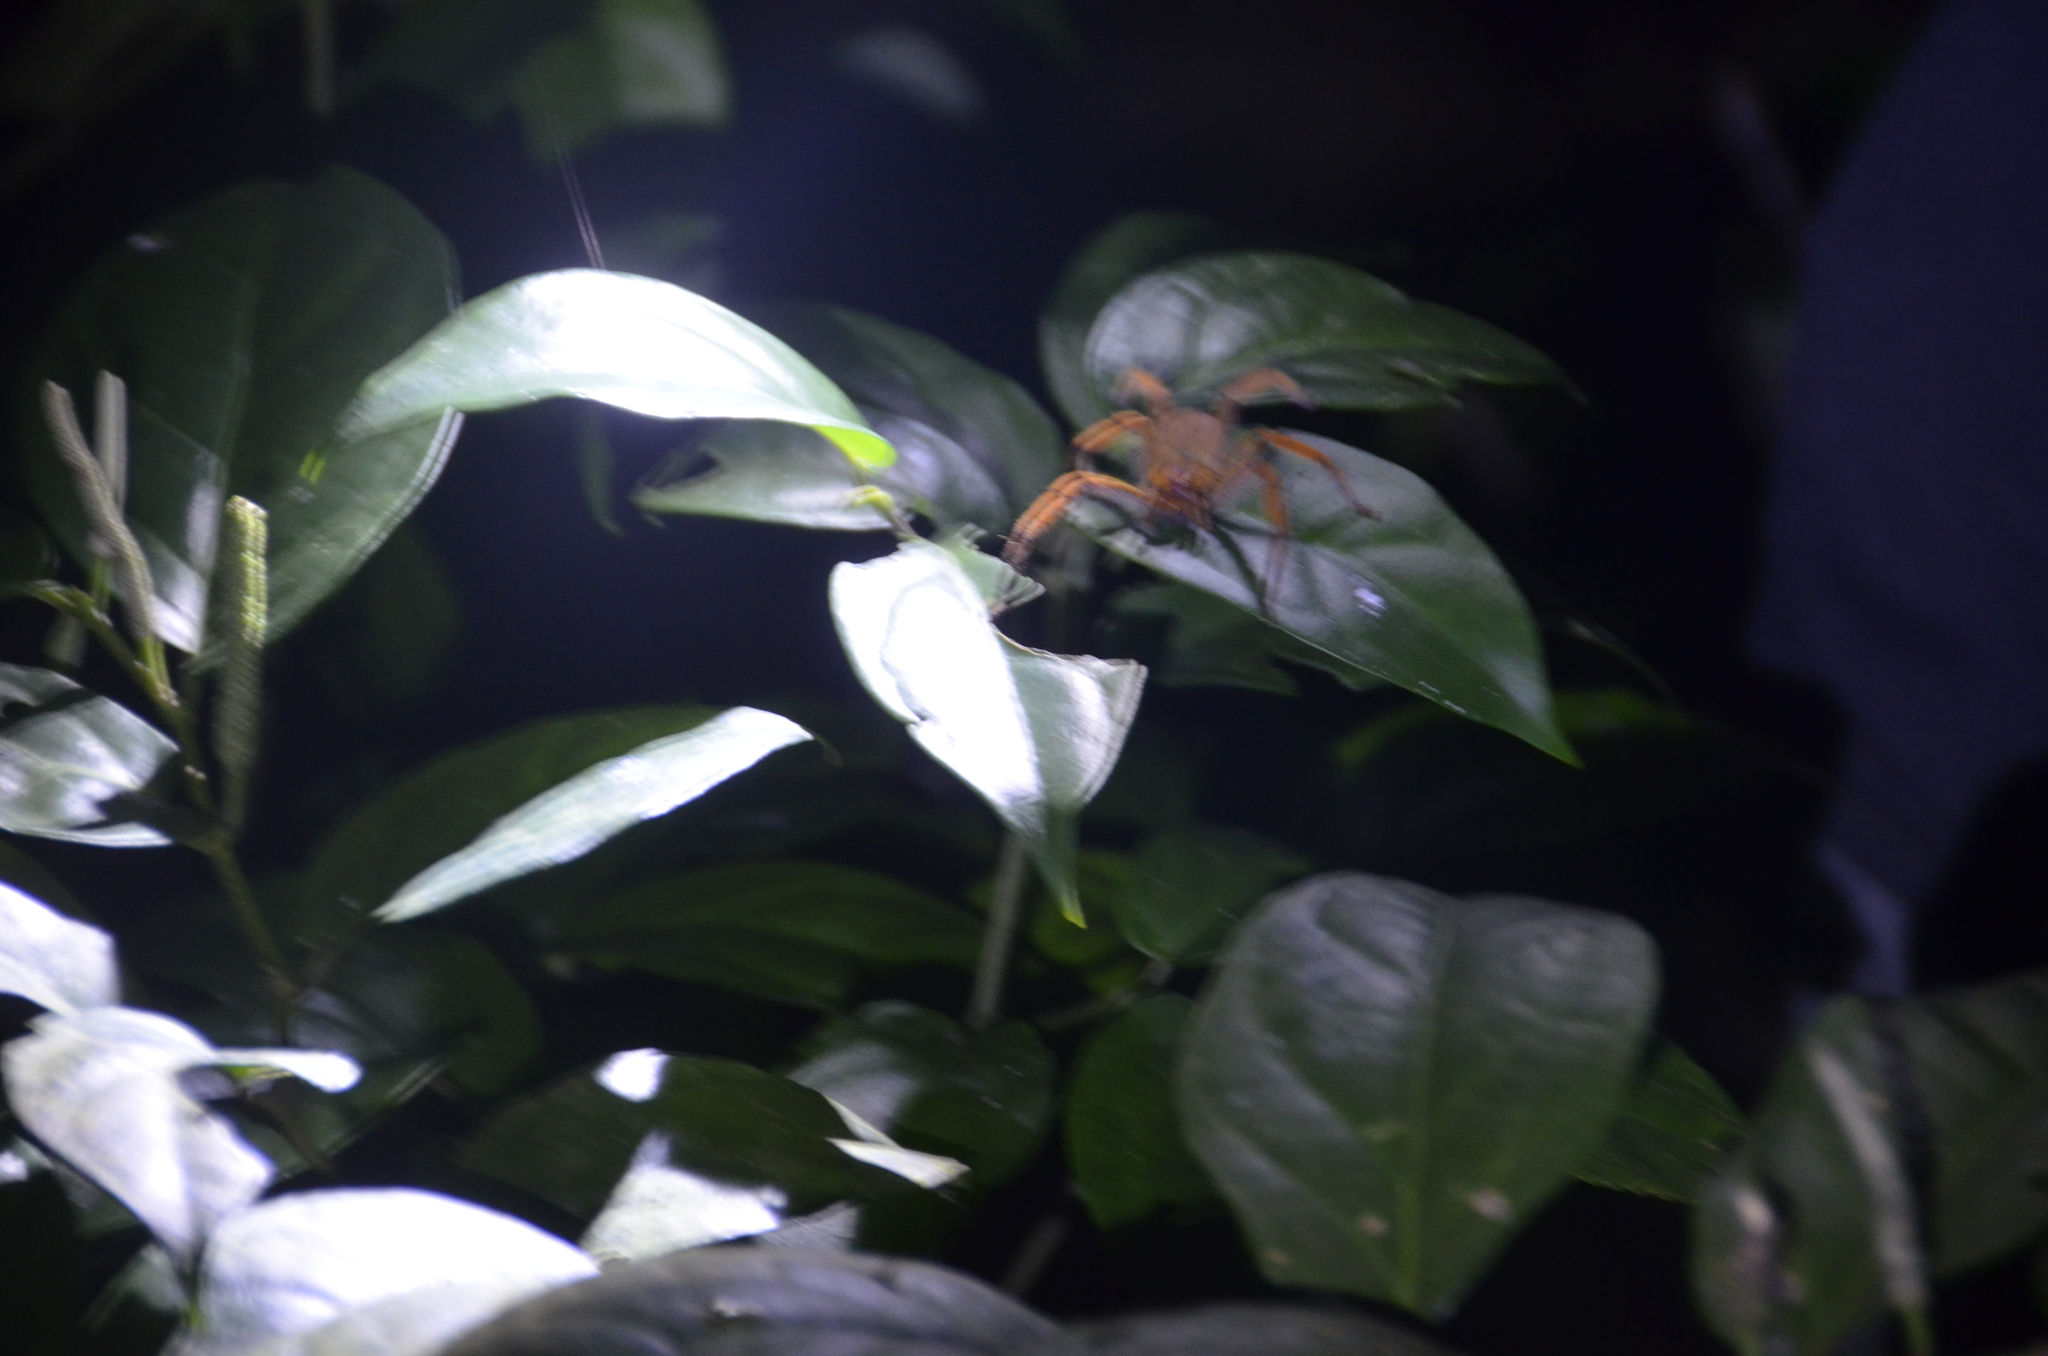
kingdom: Animalia
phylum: Arthropoda
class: Arachnida
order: Araneae
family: Trechaleidae
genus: Cupiennius
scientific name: Cupiennius getazi
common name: Wandering spiders
